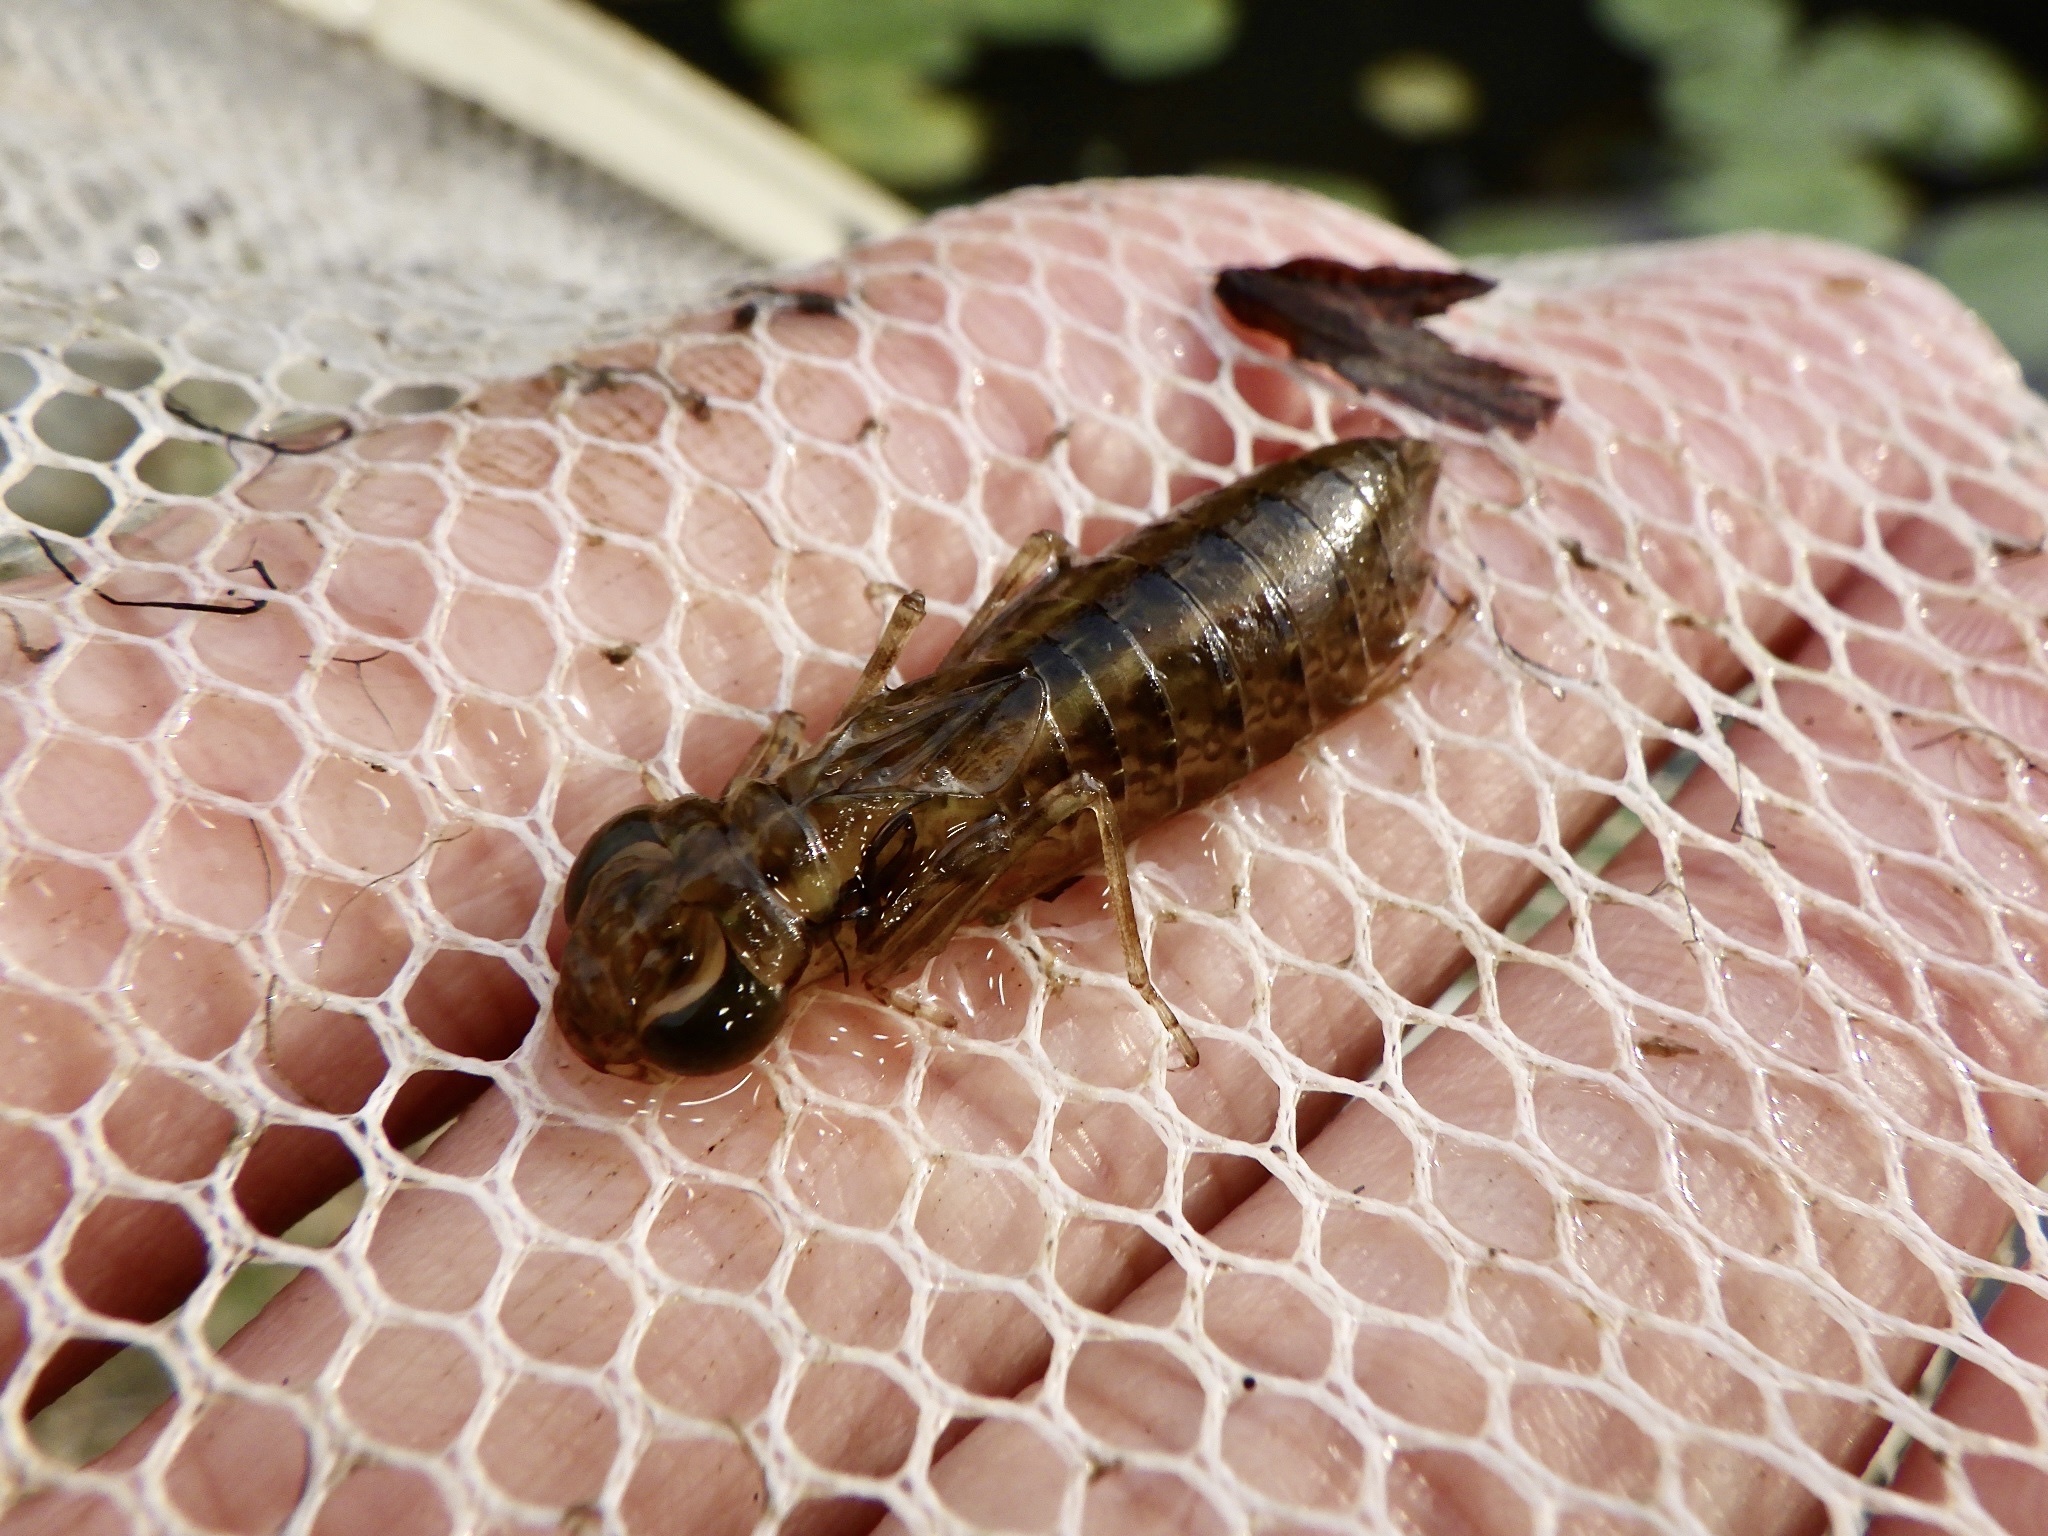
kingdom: Animalia
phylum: Arthropoda
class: Insecta
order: Odonata
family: Aeshnidae
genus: Anax
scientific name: Anax julius
